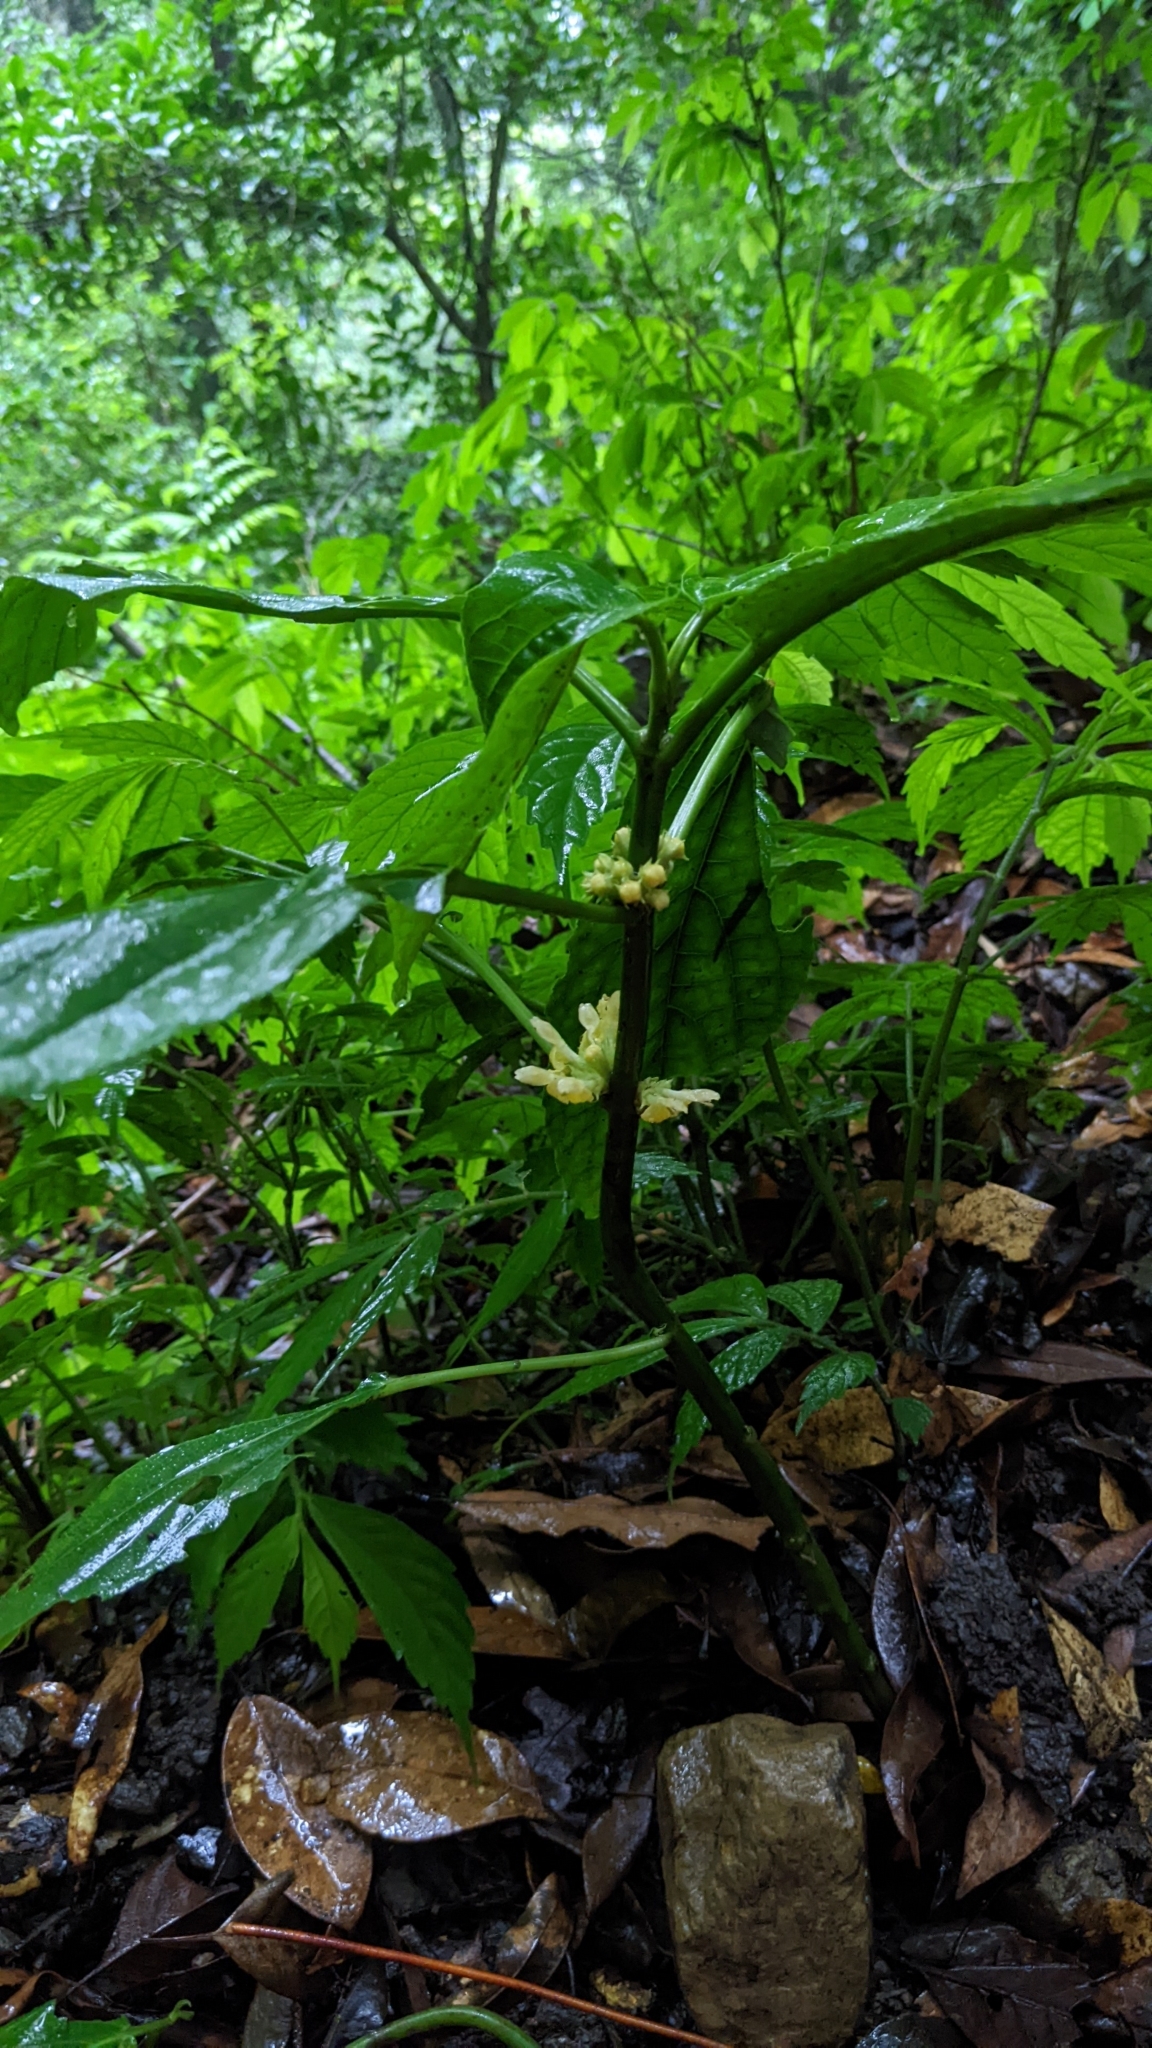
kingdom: Plantae
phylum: Tracheophyta
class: Magnoliopsida
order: Lamiales
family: Lamiaceae
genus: Paraphlomis
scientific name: Paraphlomis javanica
